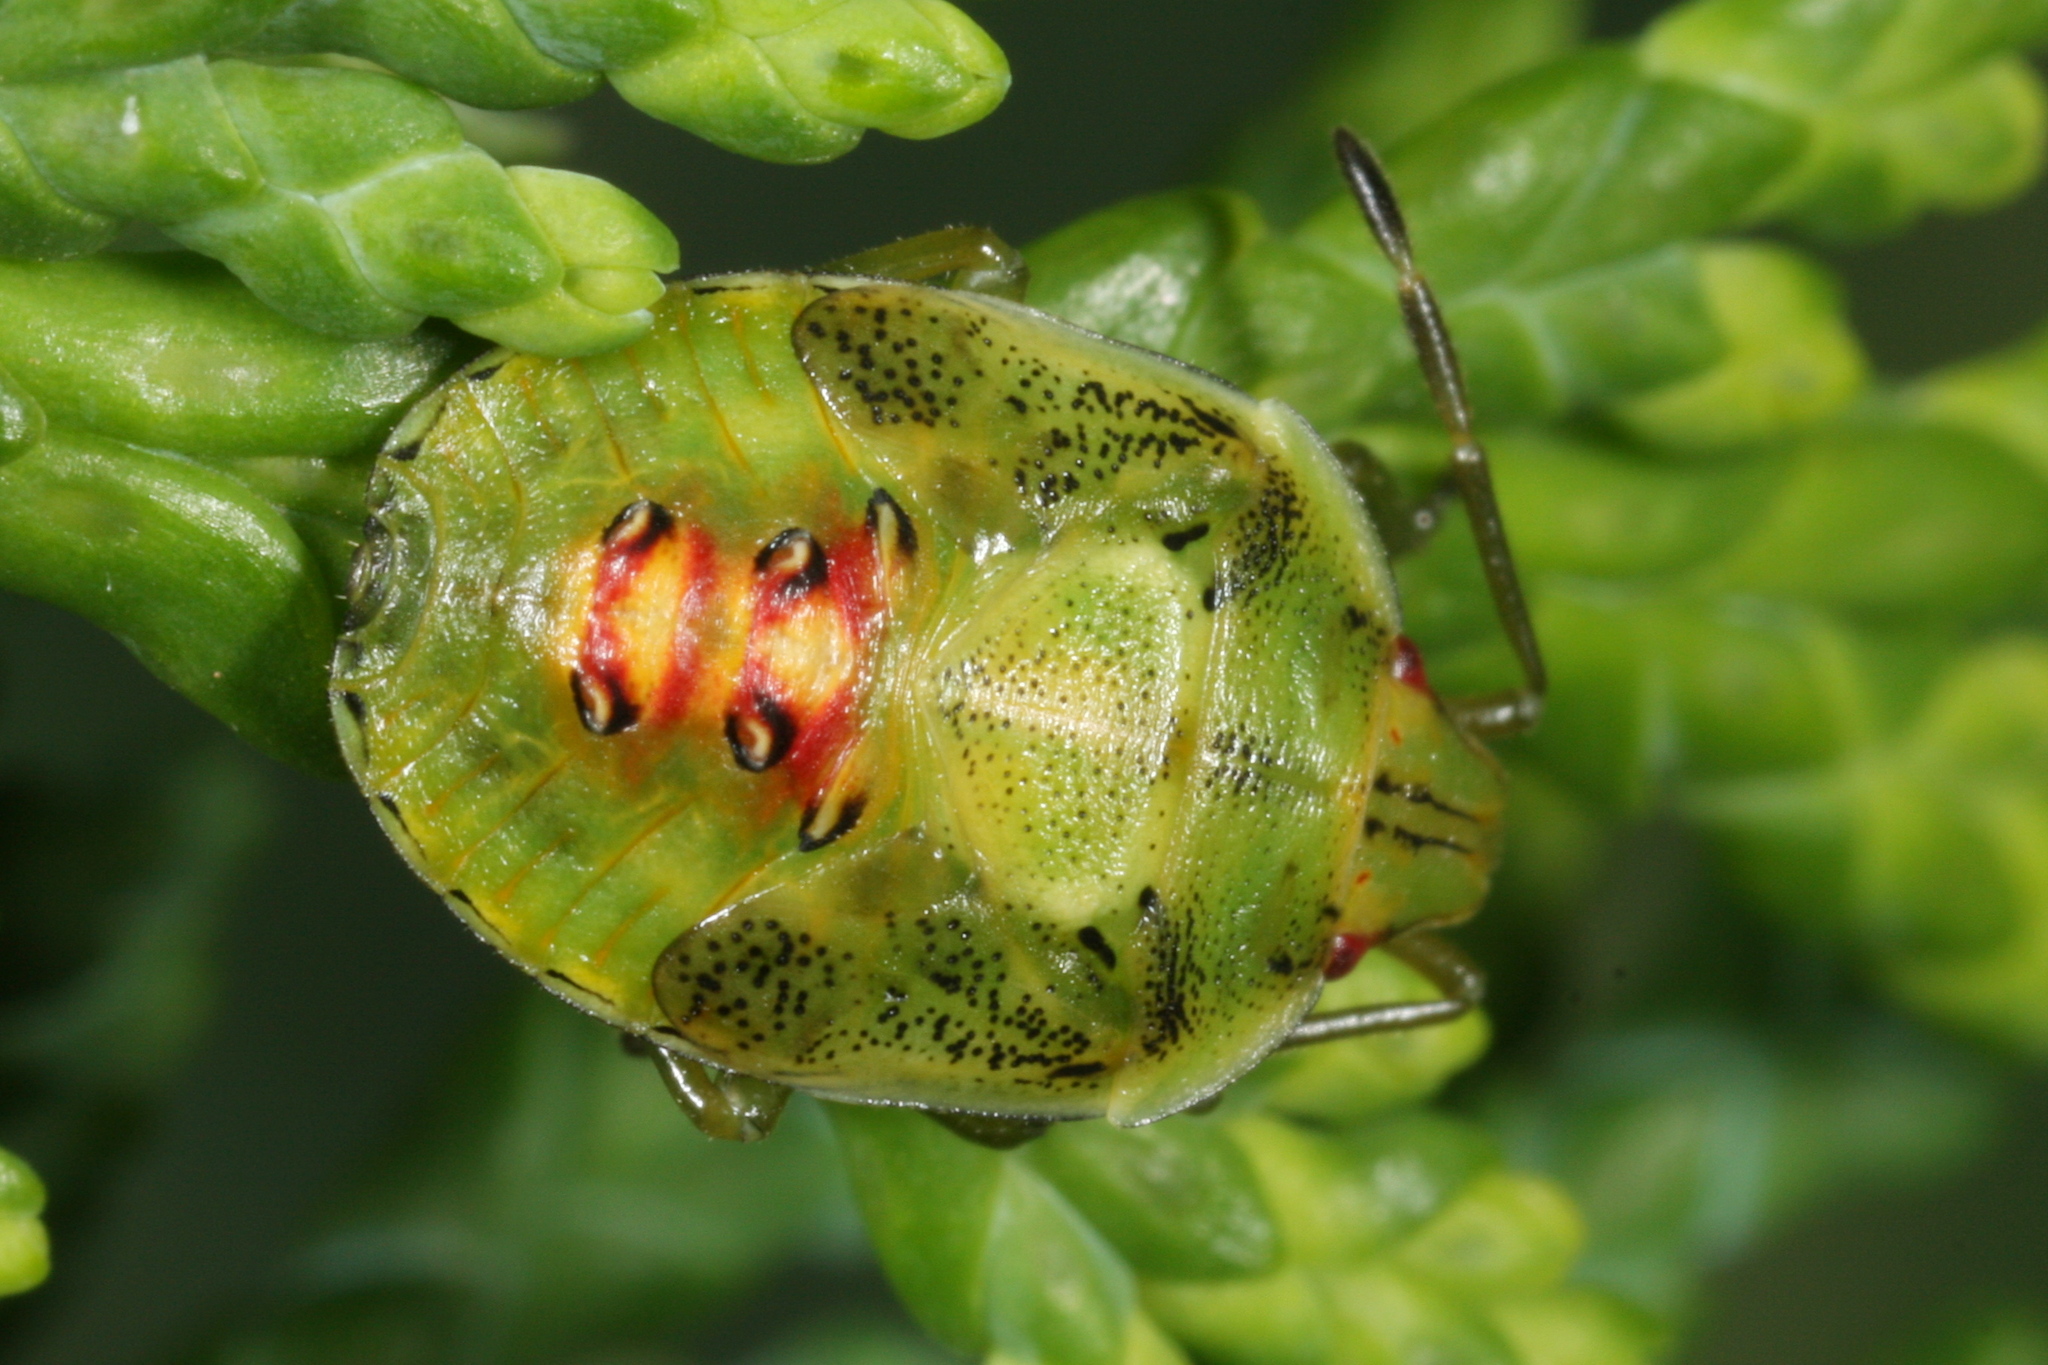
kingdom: Animalia
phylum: Arthropoda
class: Insecta
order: Hemiptera
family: Acanthosomatidae
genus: Cyphostethus
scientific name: Cyphostethus tristriatus
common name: Juniper shieldbug
